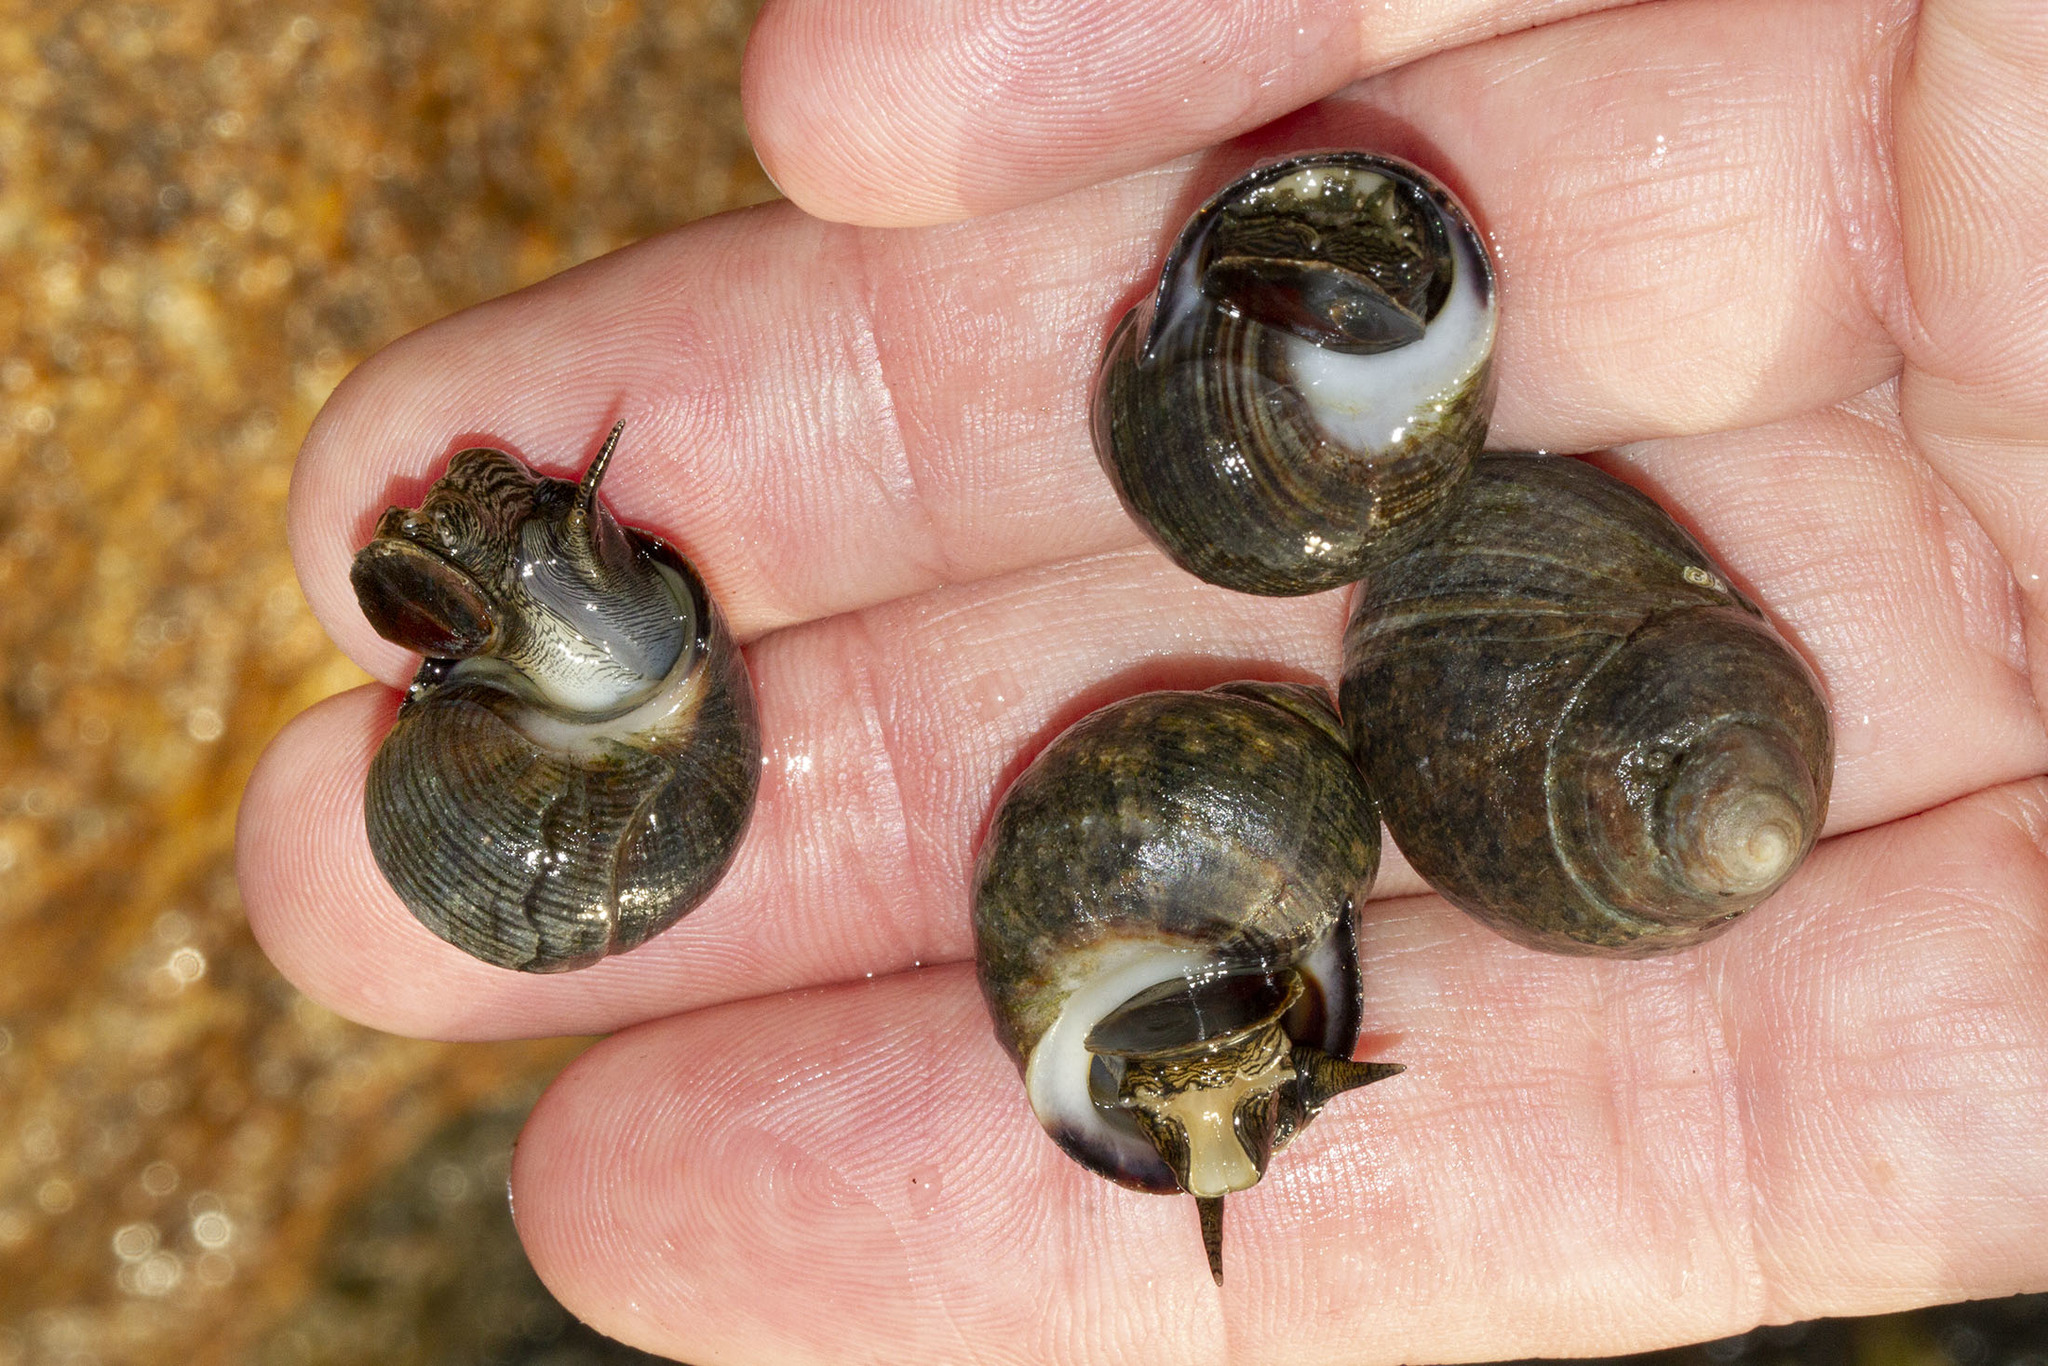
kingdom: Animalia
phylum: Mollusca
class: Gastropoda
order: Littorinimorpha
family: Littorinidae
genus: Littorina
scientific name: Littorina littorea
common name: Common periwinkle
